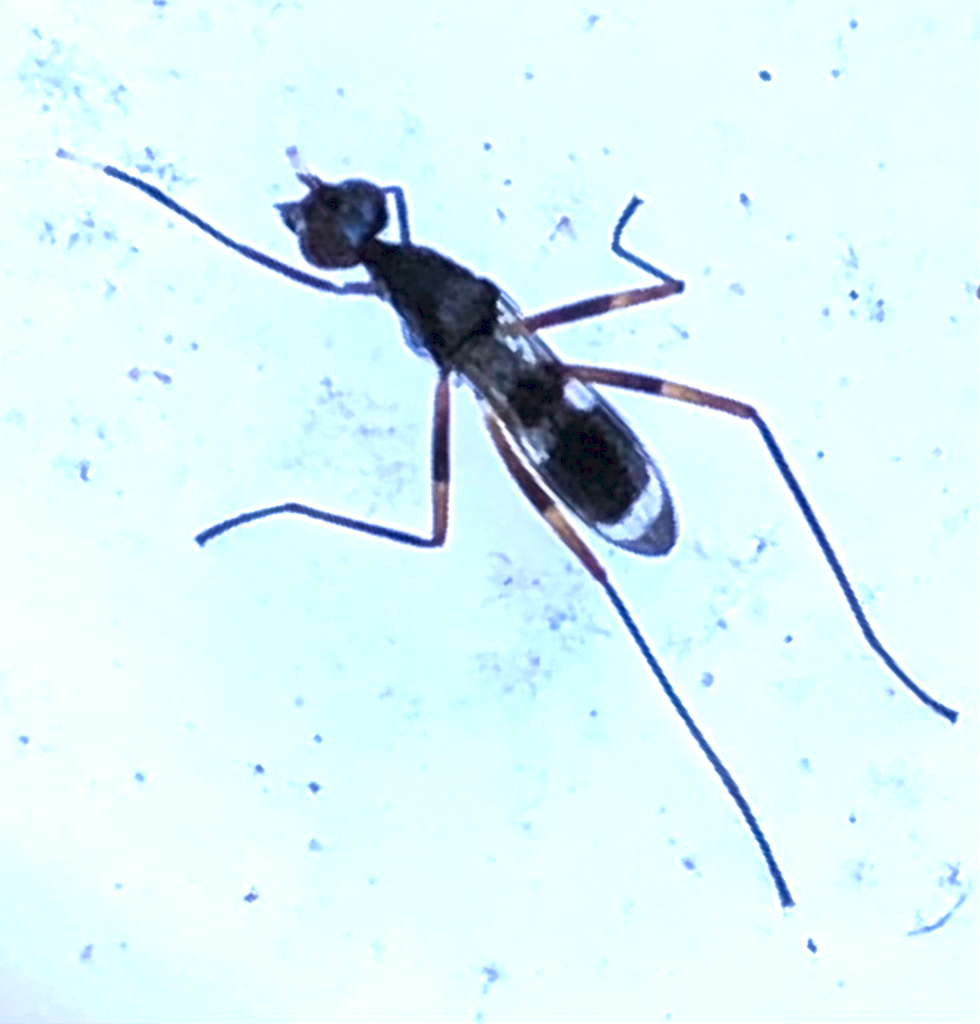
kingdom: Animalia
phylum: Arthropoda
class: Insecta
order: Diptera
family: Micropezidae
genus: Taeniaptera
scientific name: Taeniaptera trivittata
